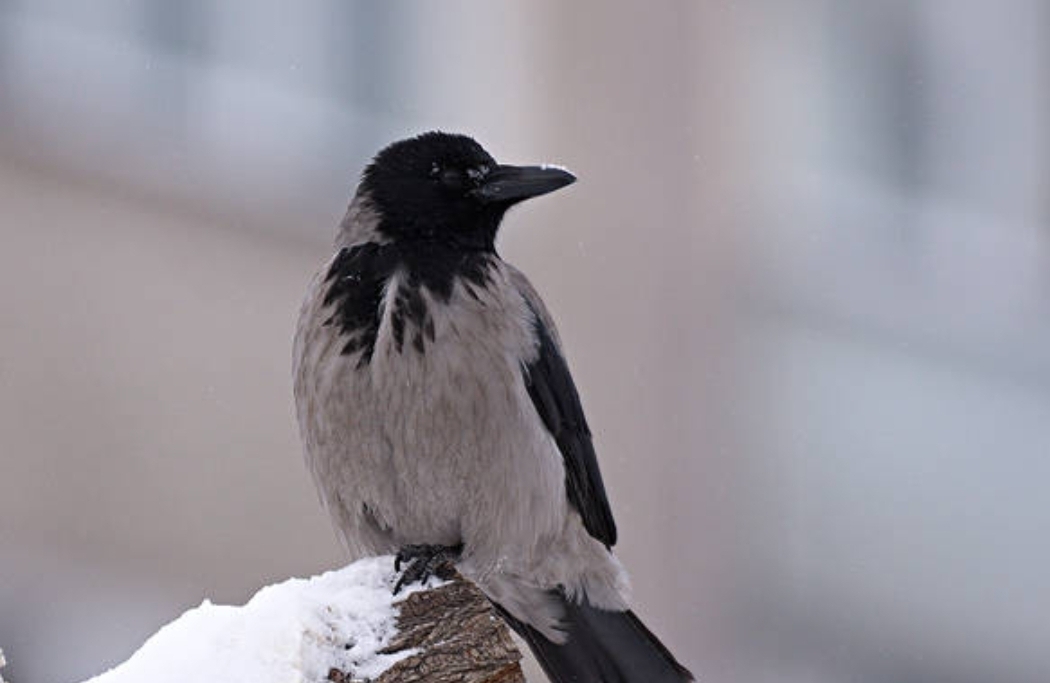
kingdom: Animalia
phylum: Chordata
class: Aves
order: Passeriformes
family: Corvidae
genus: Corvus
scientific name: Corvus cornix
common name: Hooded crow
